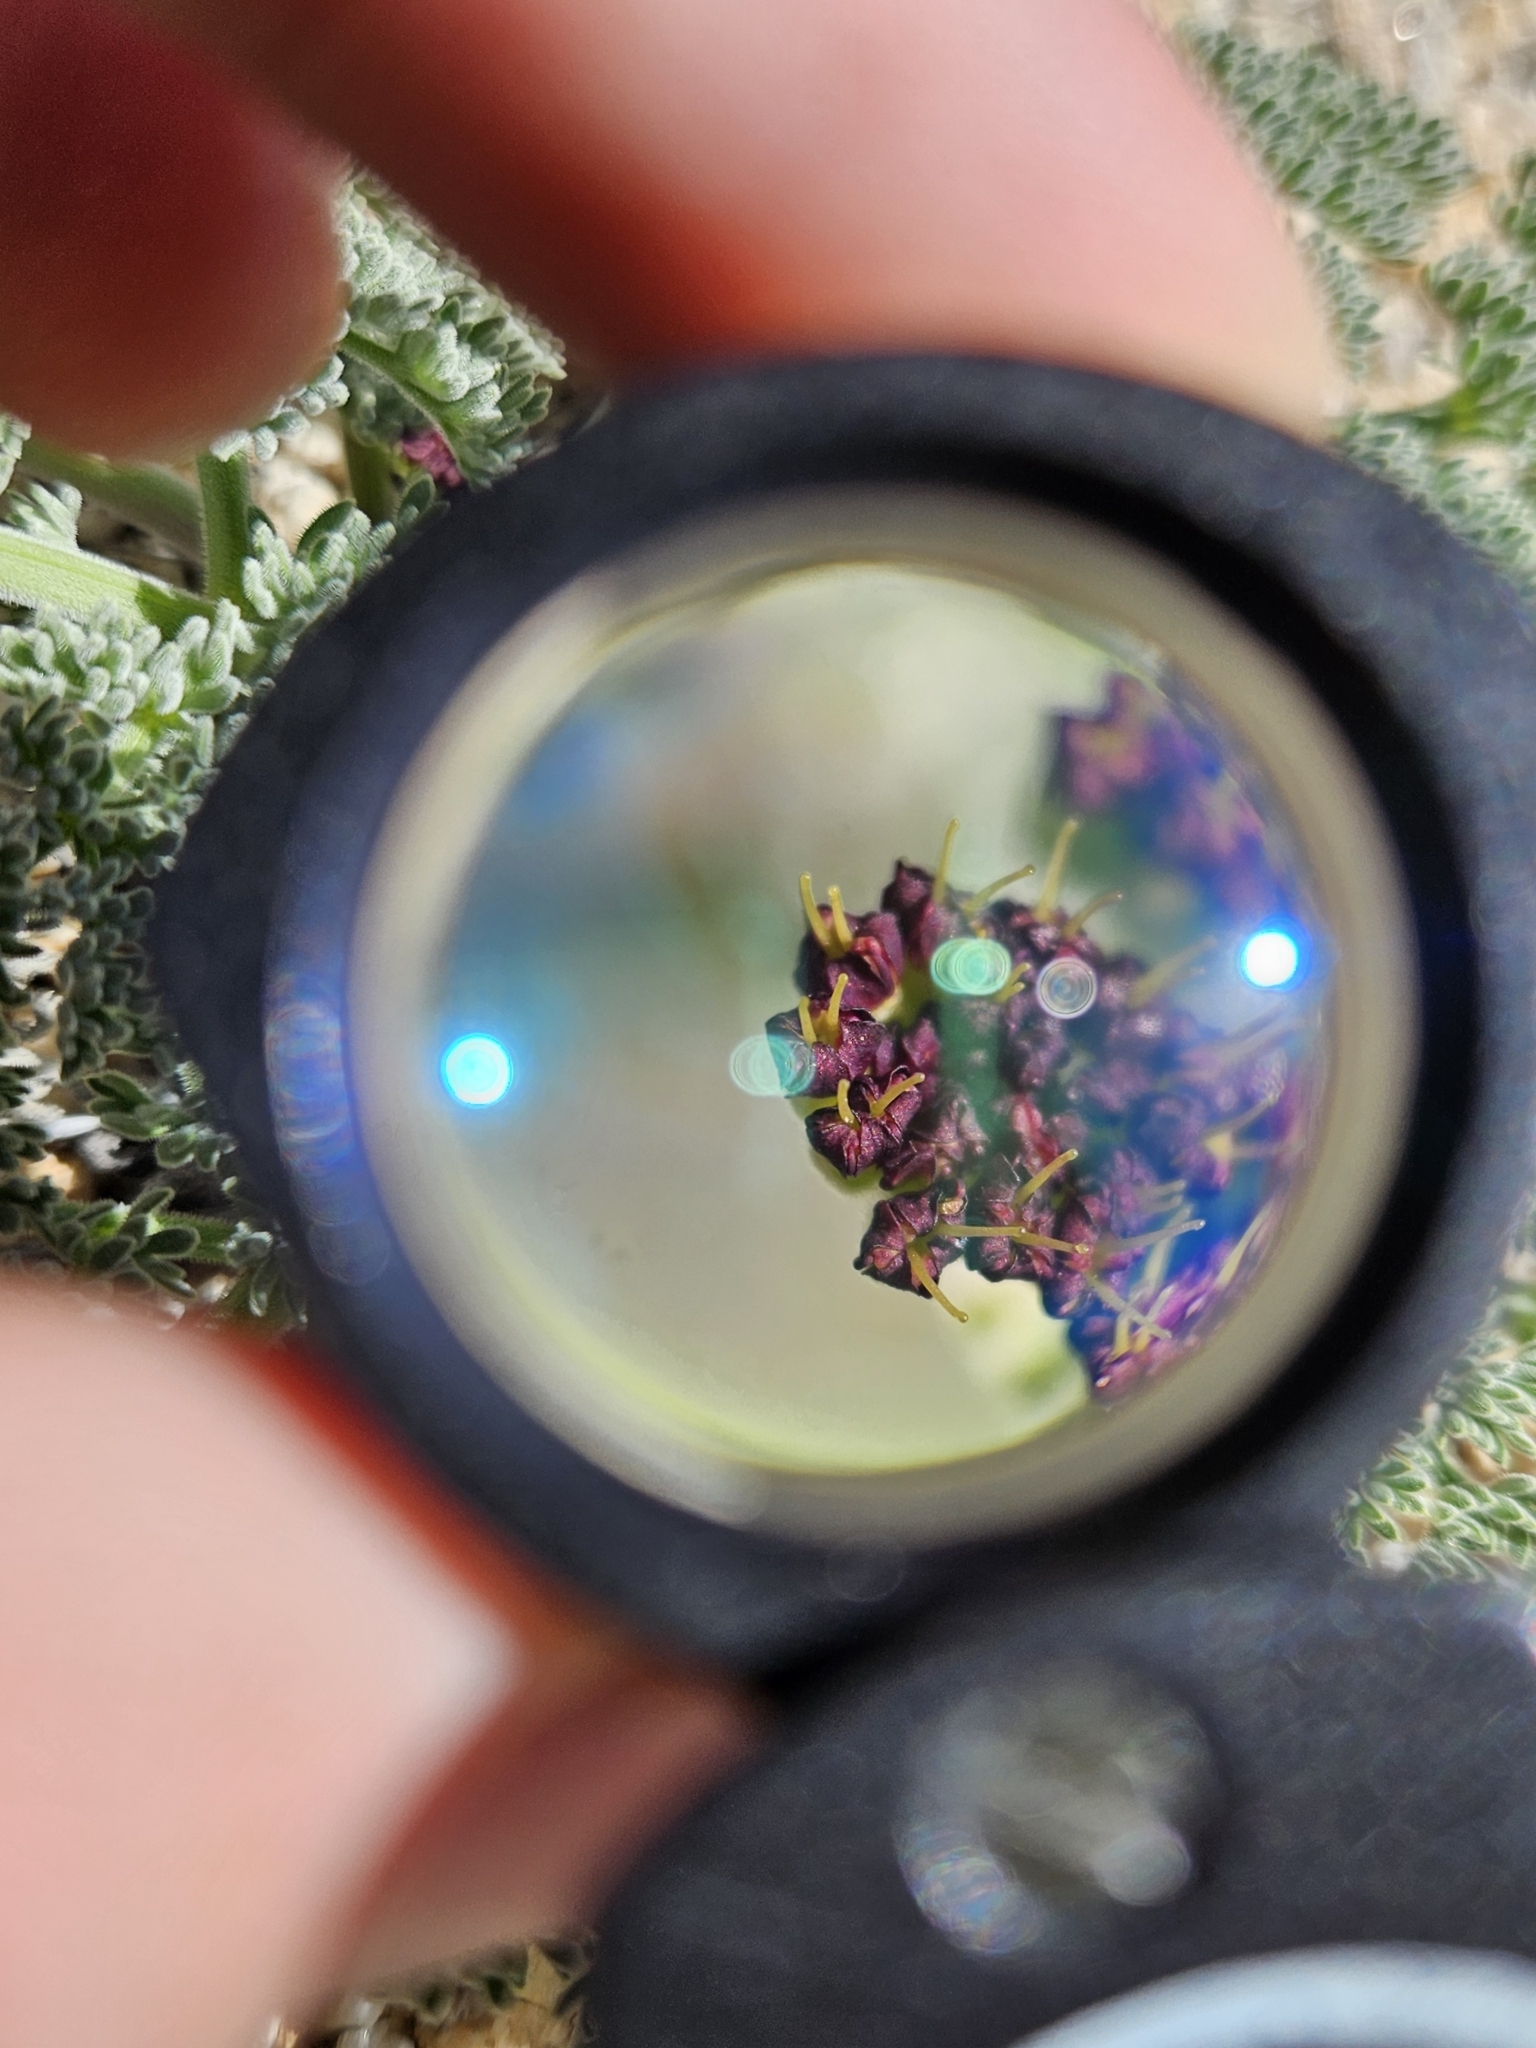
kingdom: Plantae
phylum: Tracheophyta
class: Magnoliopsida
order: Apiales
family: Apiaceae
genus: Lomatium
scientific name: Lomatium mohavense
